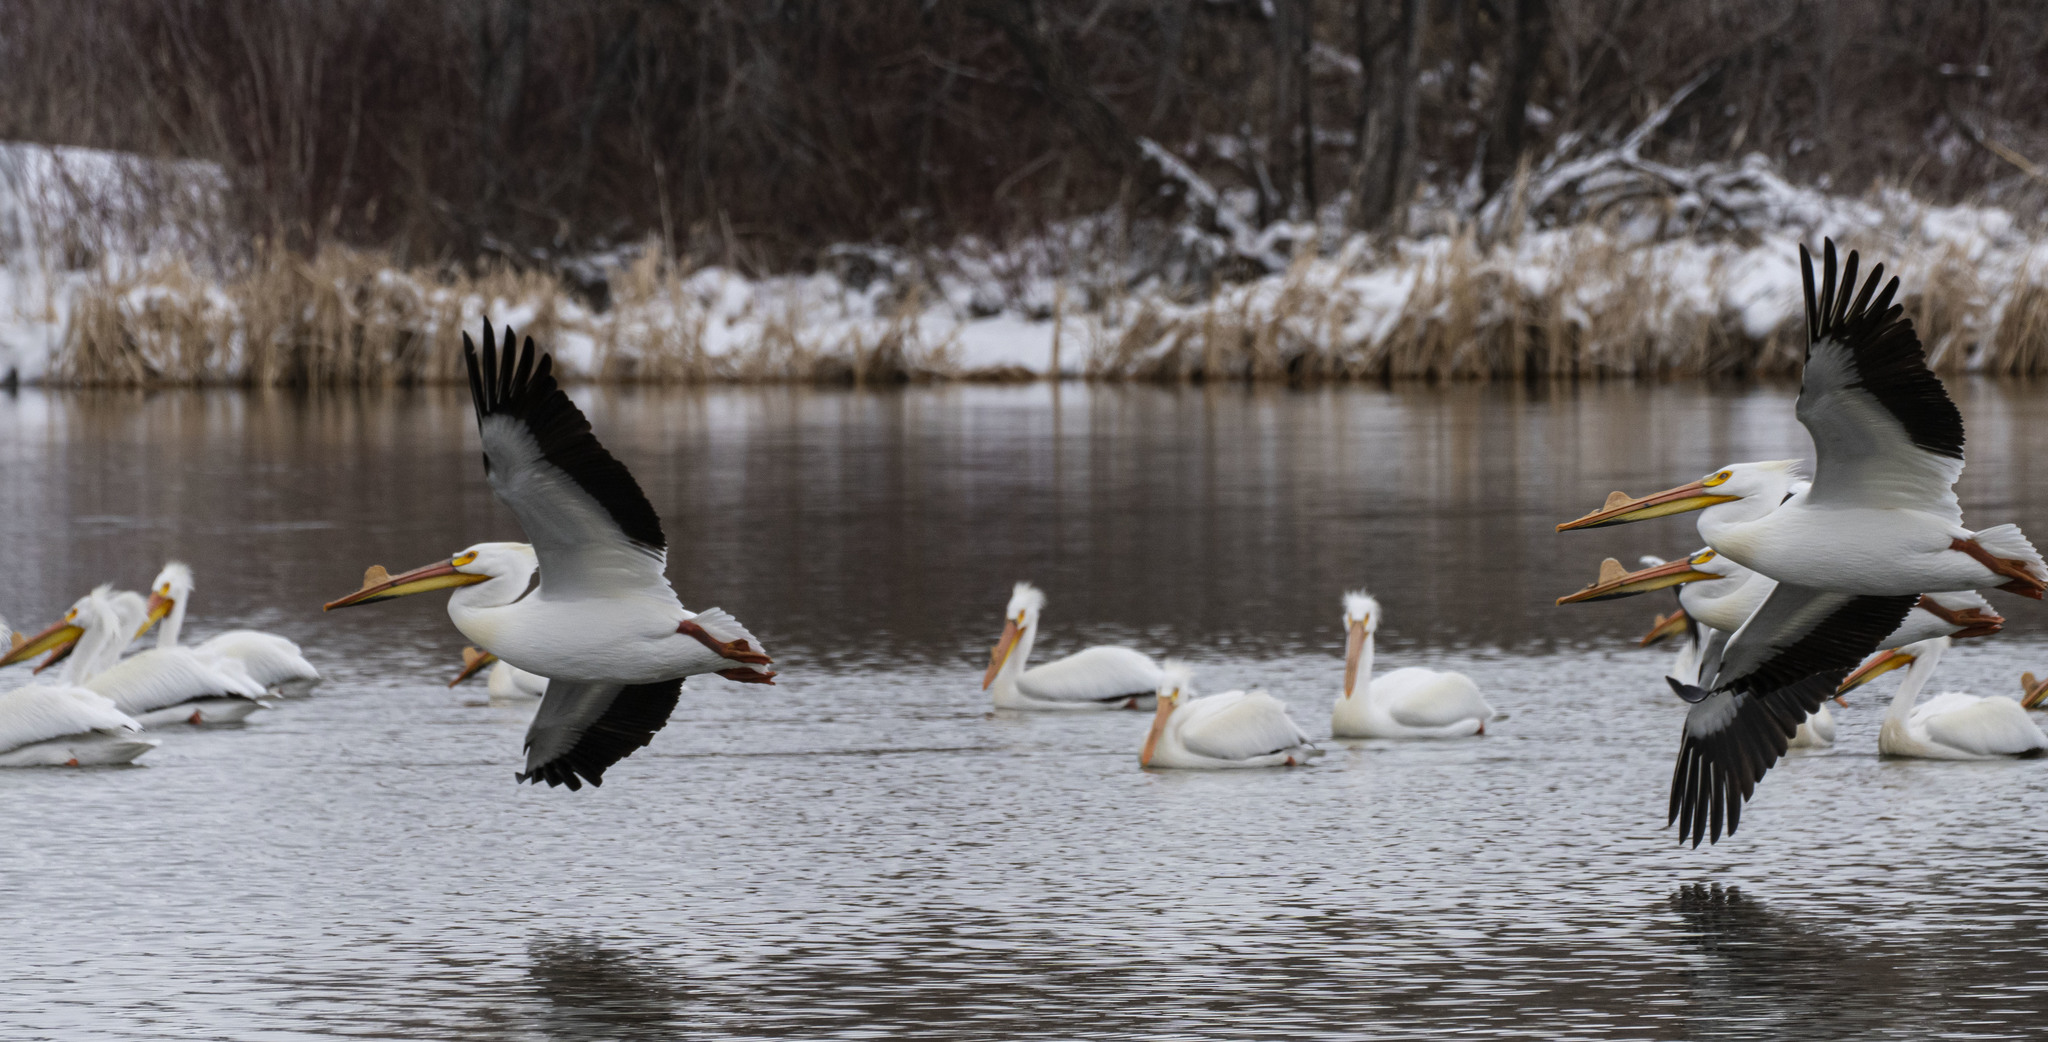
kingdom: Animalia
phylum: Chordata
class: Aves
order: Pelecaniformes
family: Pelecanidae
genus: Pelecanus
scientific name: Pelecanus erythrorhynchos
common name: American white pelican
